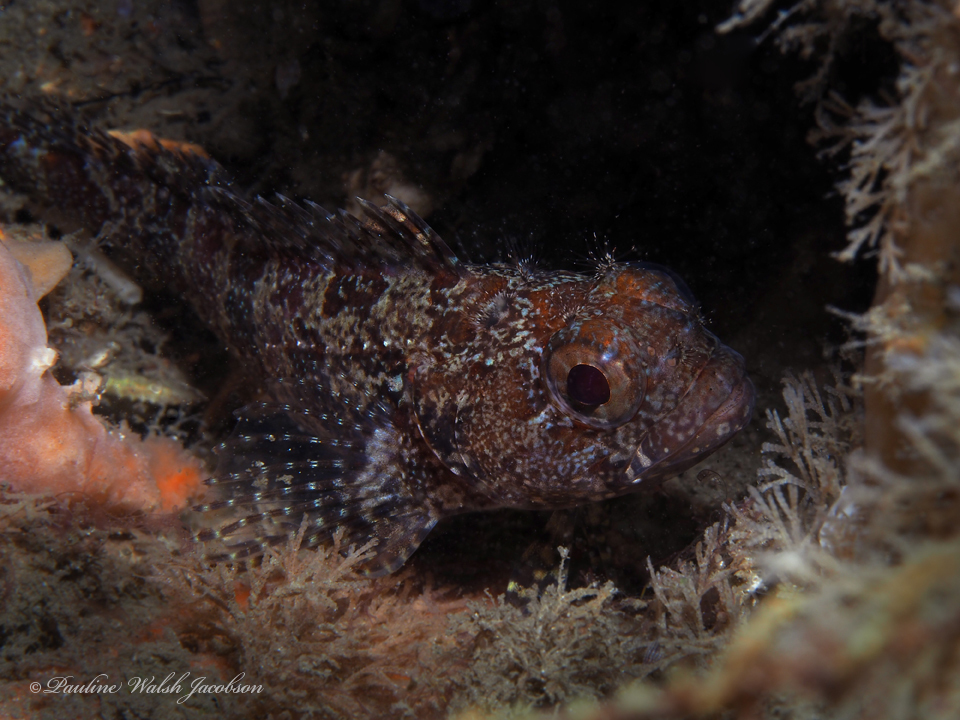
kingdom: Animalia
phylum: Chordata
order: Perciformes
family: Labrisomidae
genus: Gobioclinus
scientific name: Gobioclinus kalisherae
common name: Downy blenny
